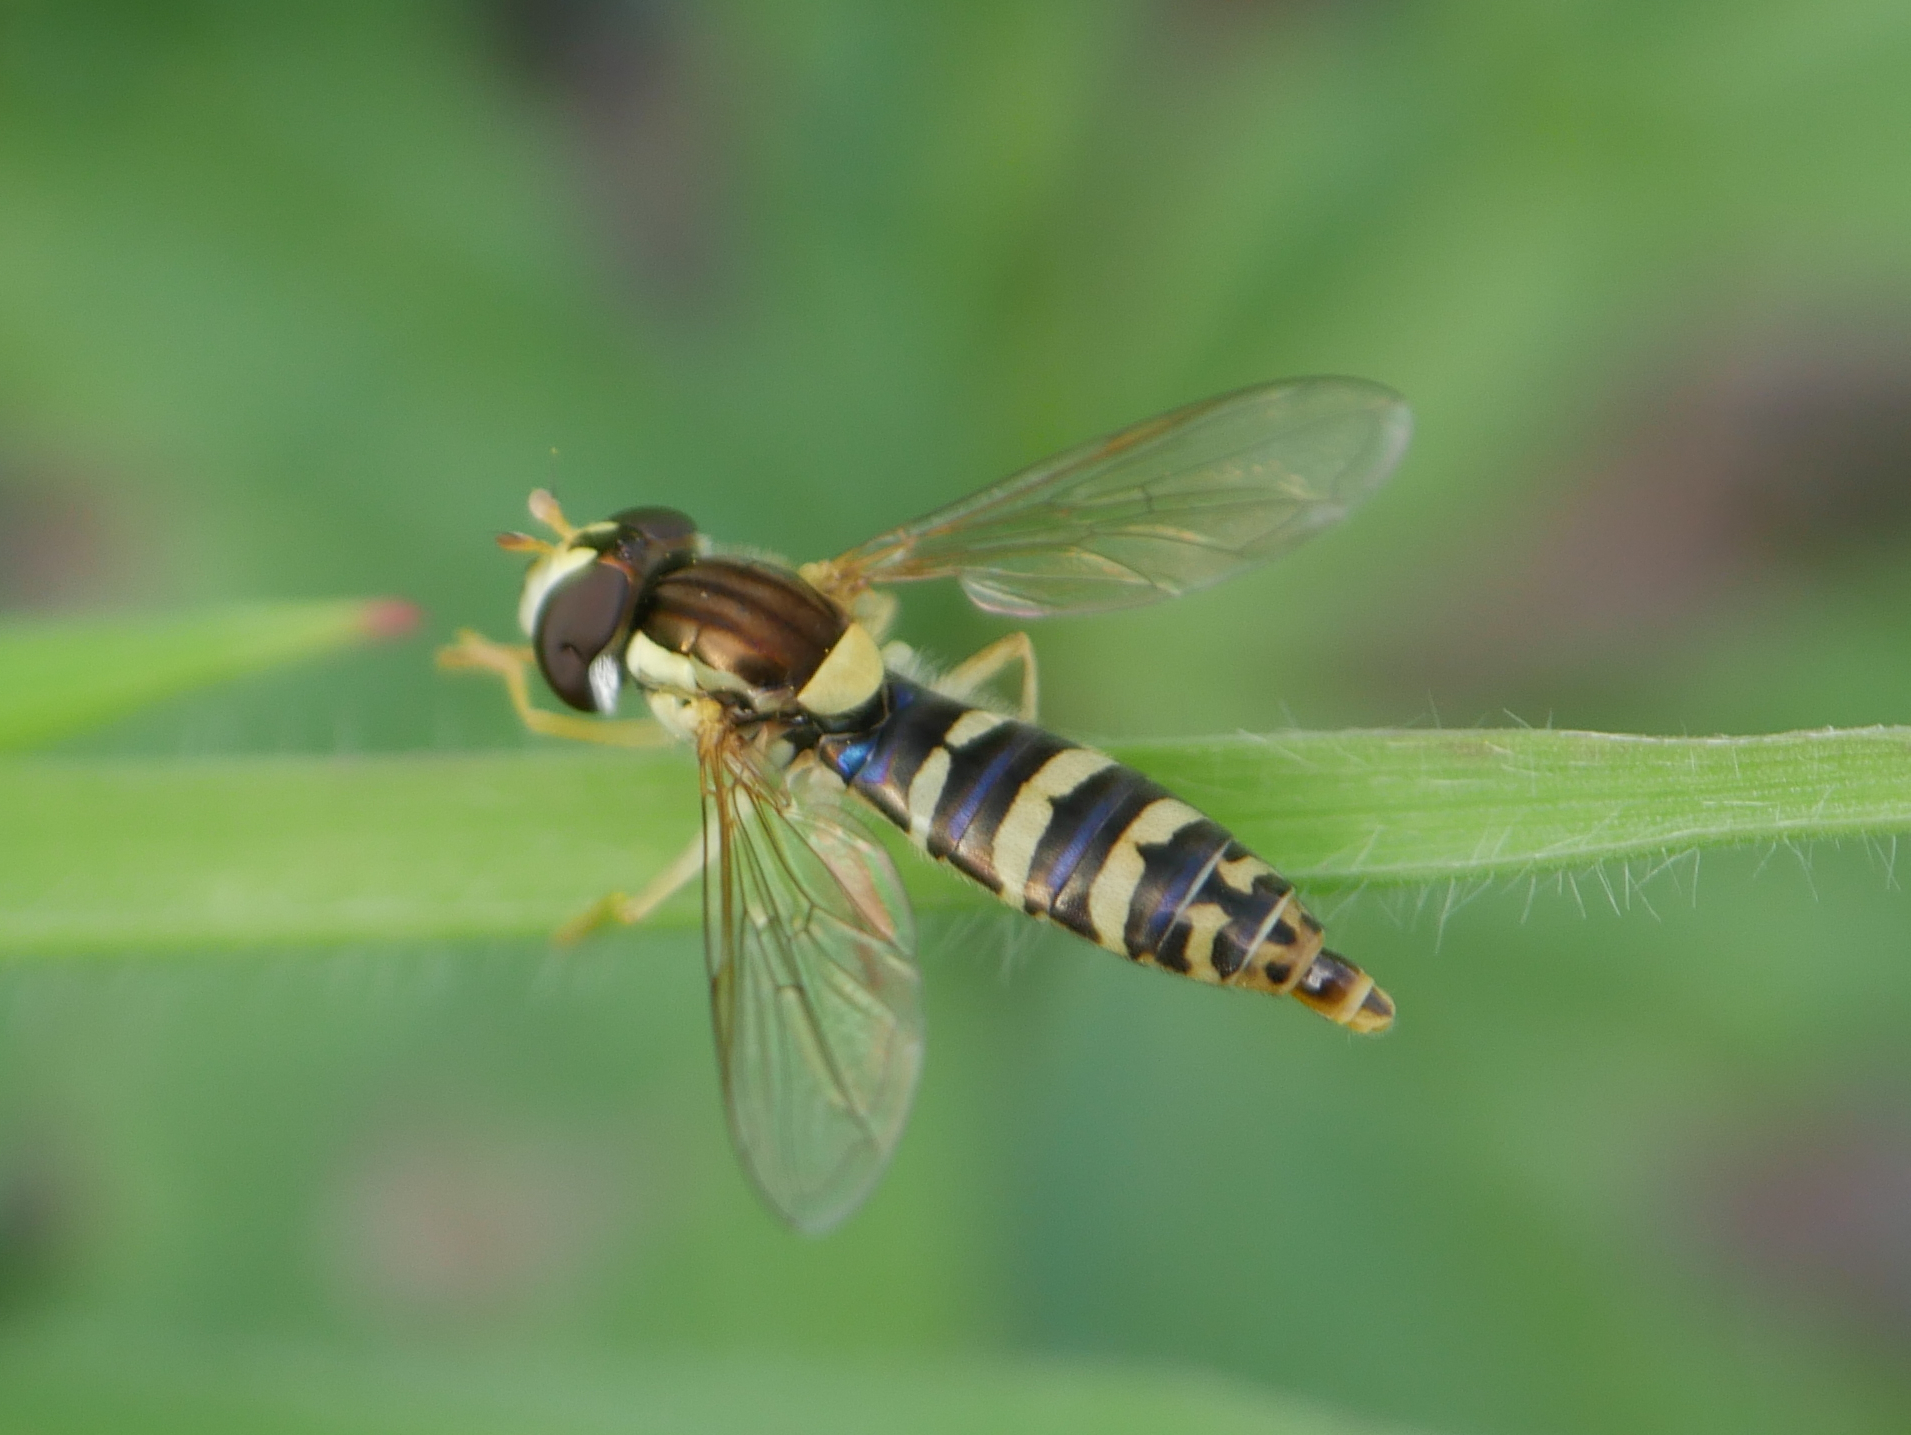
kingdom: Animalia
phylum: Arthropoda
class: Insecta
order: Diptera
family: Syrphidae
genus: Sphaerophoria
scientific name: Sphaerophoria
